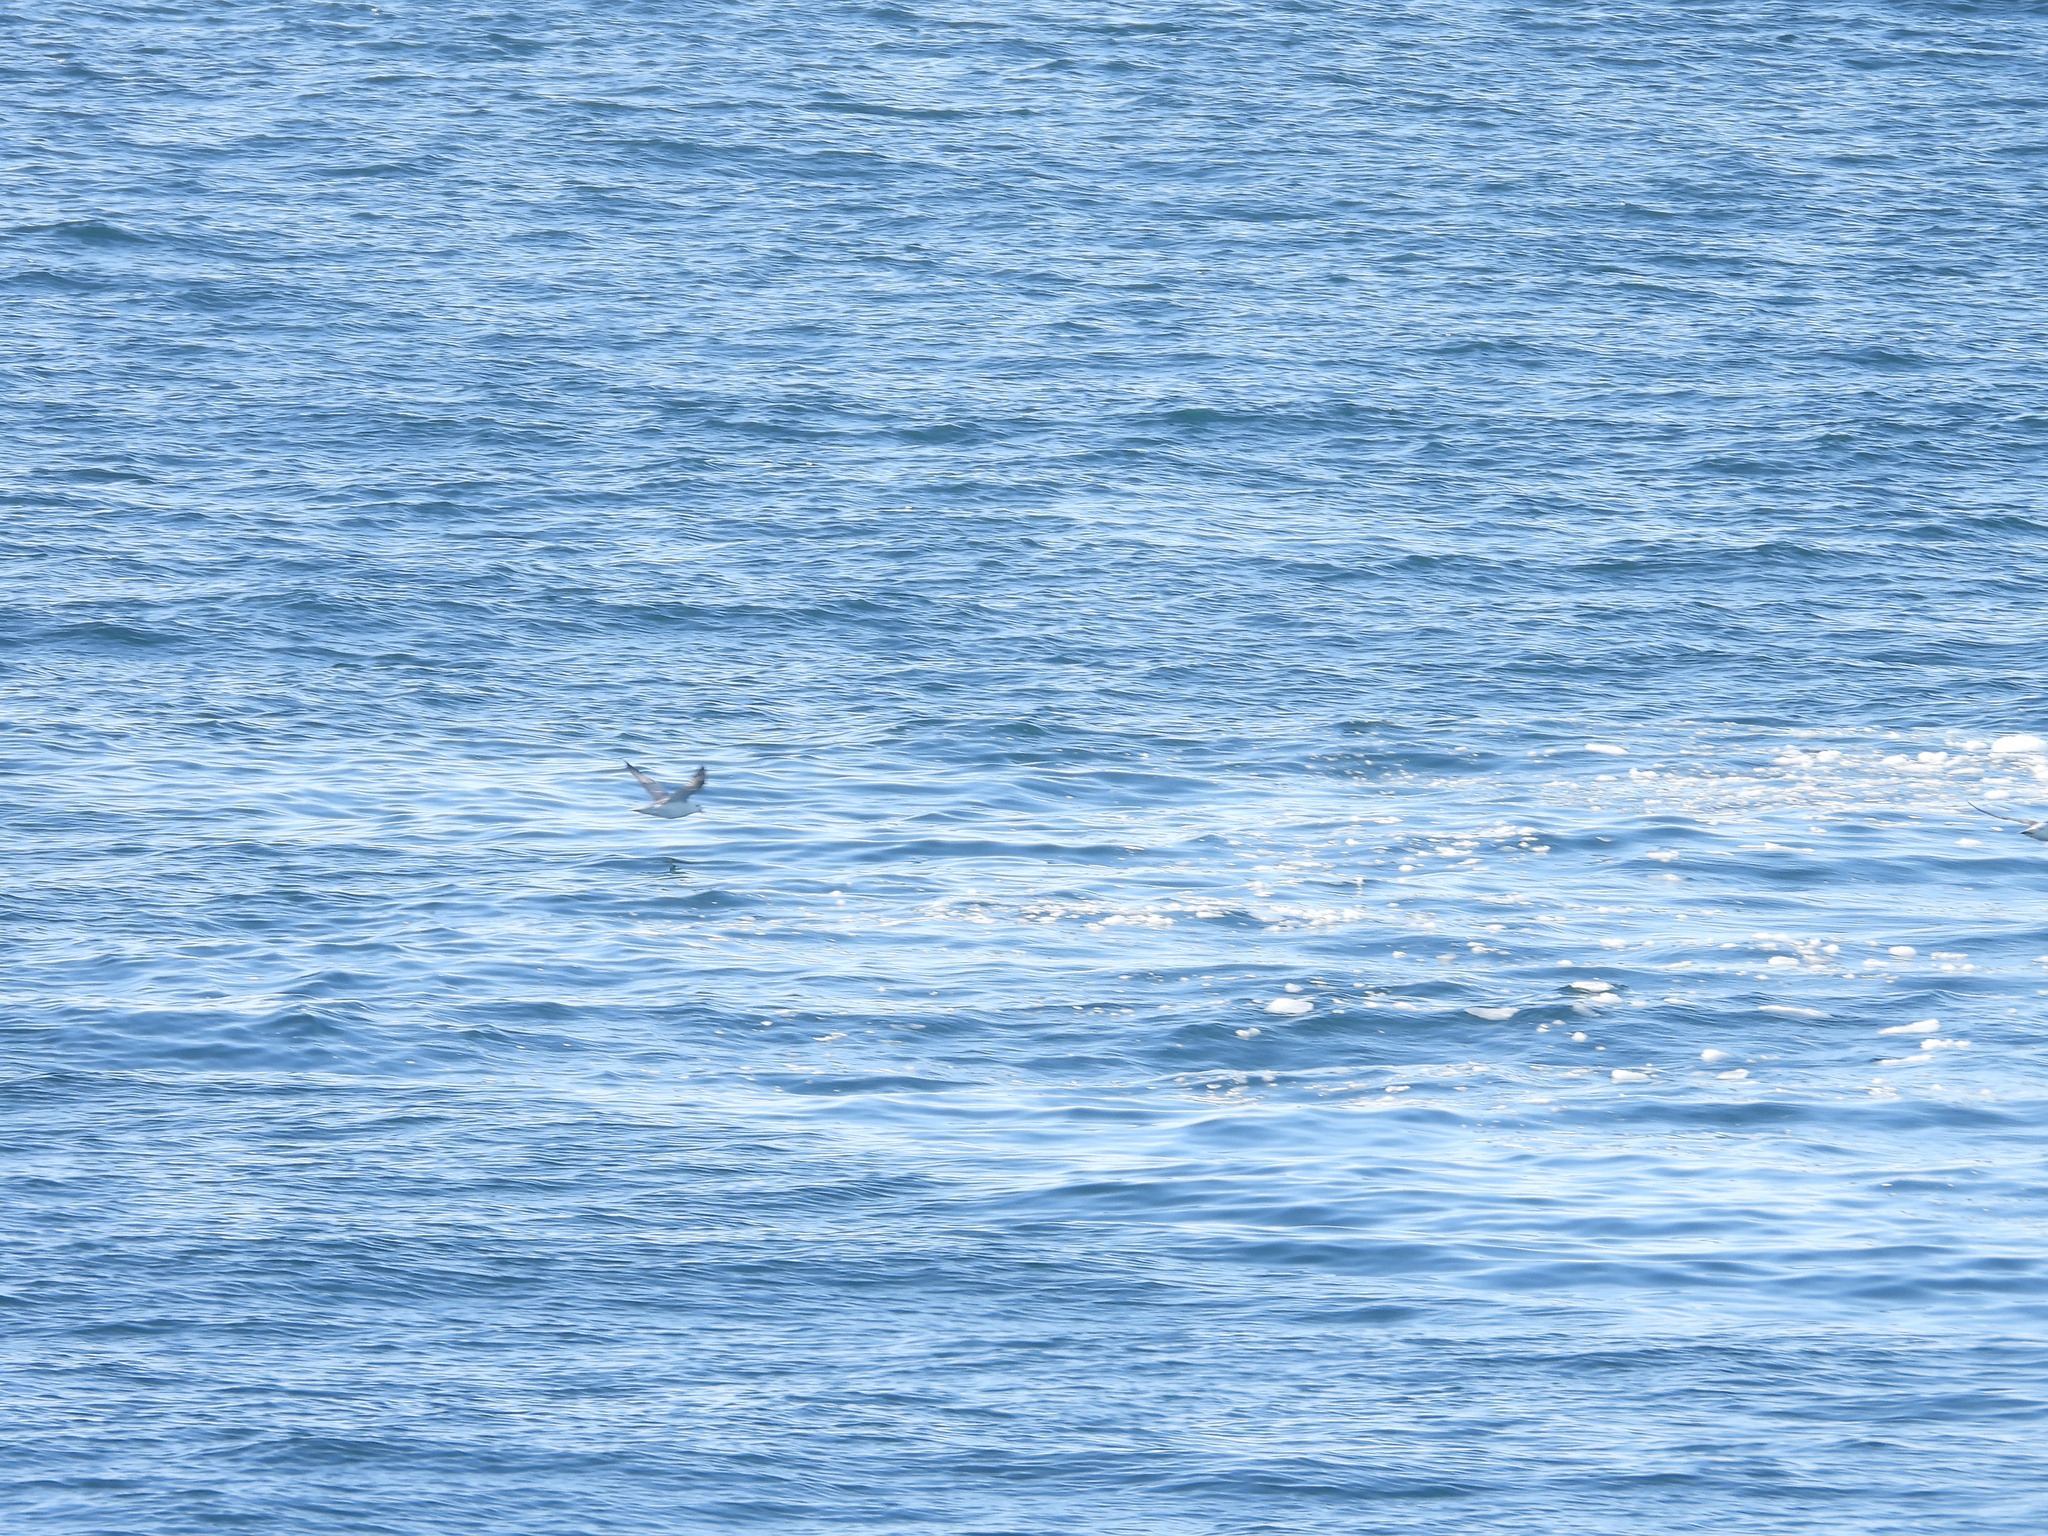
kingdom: Animalia
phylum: Chordata
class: Aves
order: Procellariiformes
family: Procellariidae
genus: Fulmarus
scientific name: Fulmarus glacialis
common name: Northern fulmar
